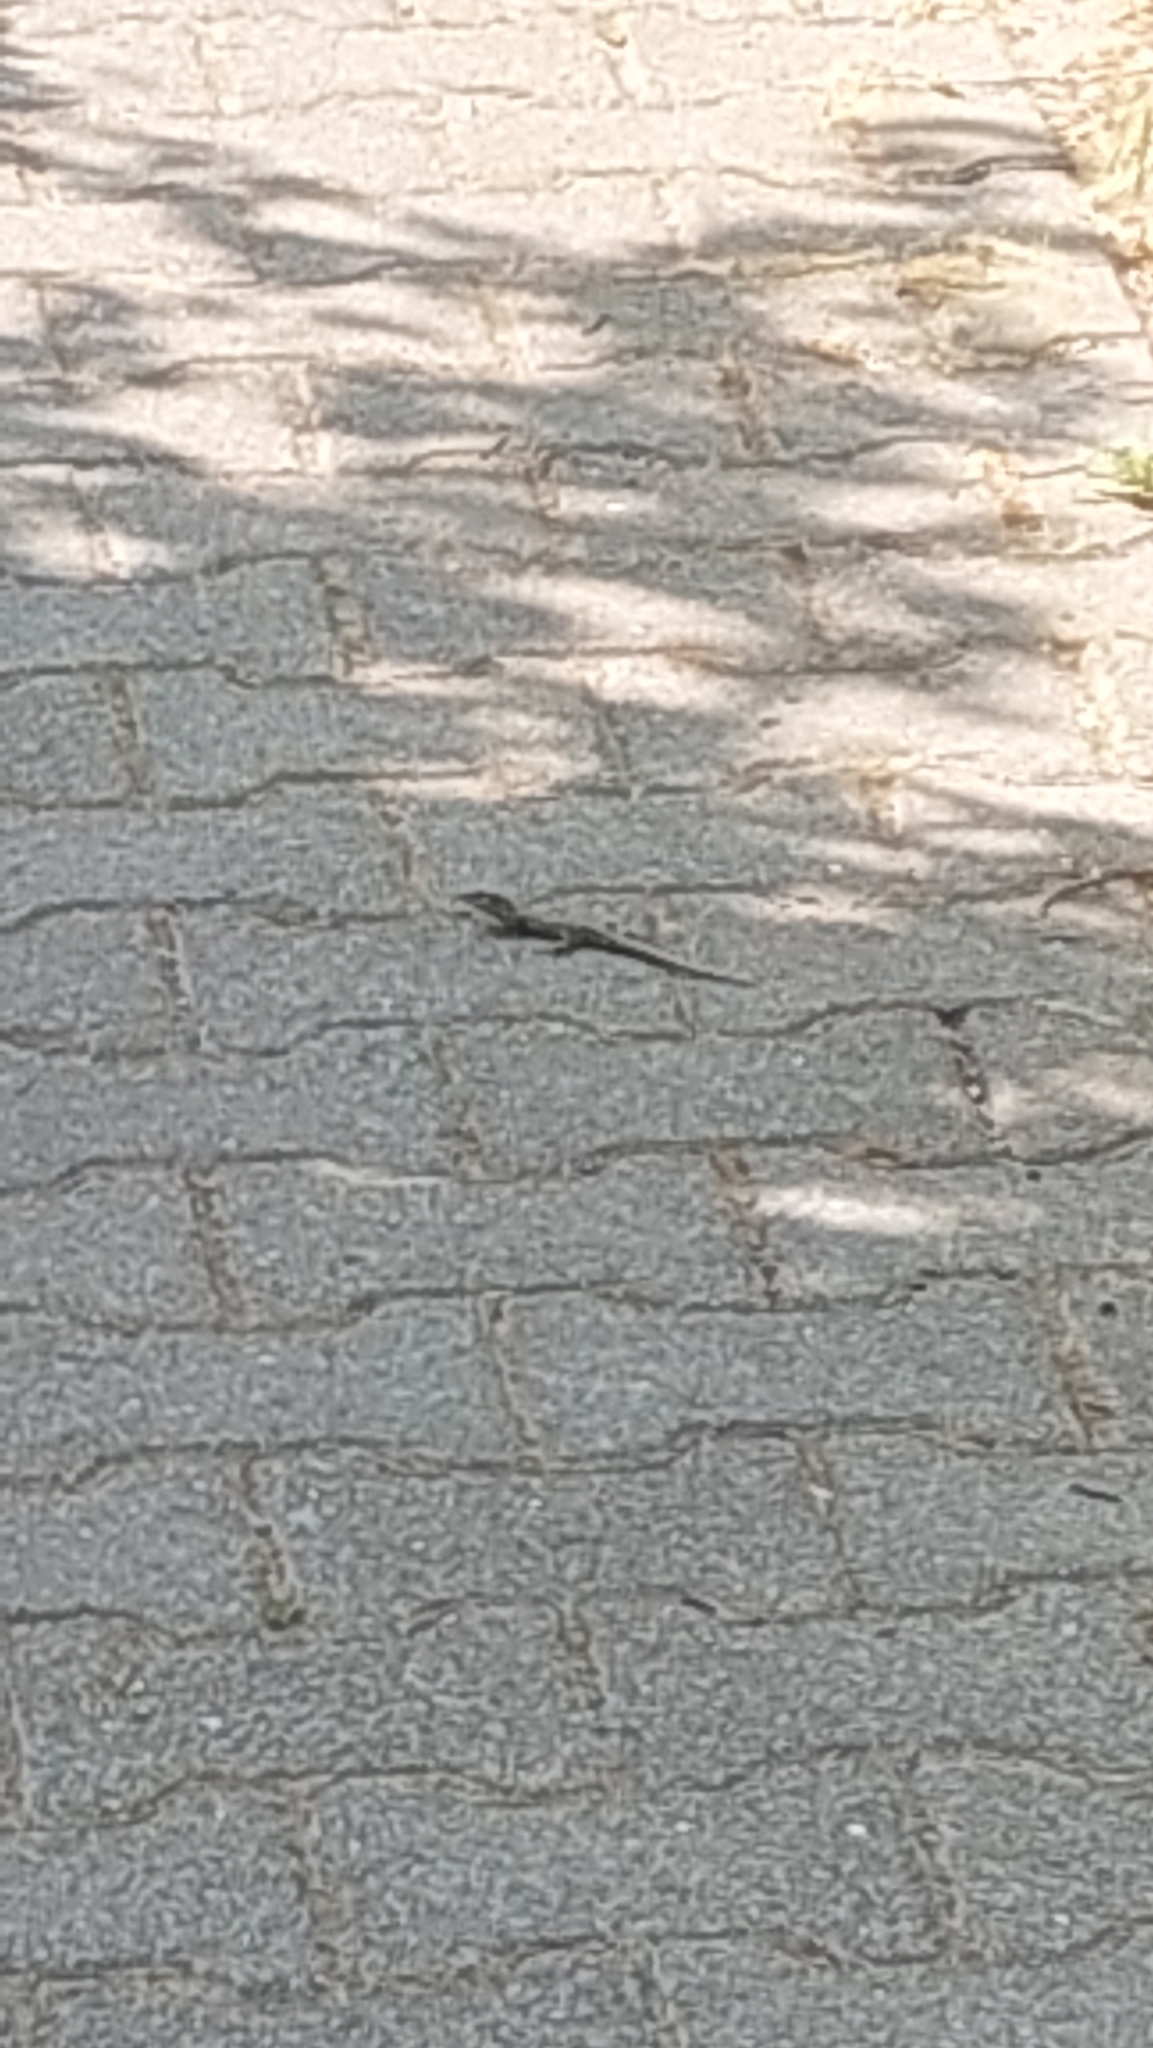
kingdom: Animalia
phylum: Chordata
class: Squamata
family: Lacertidae
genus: Podarcis
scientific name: Podarcis muralis
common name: Common wall lizard
